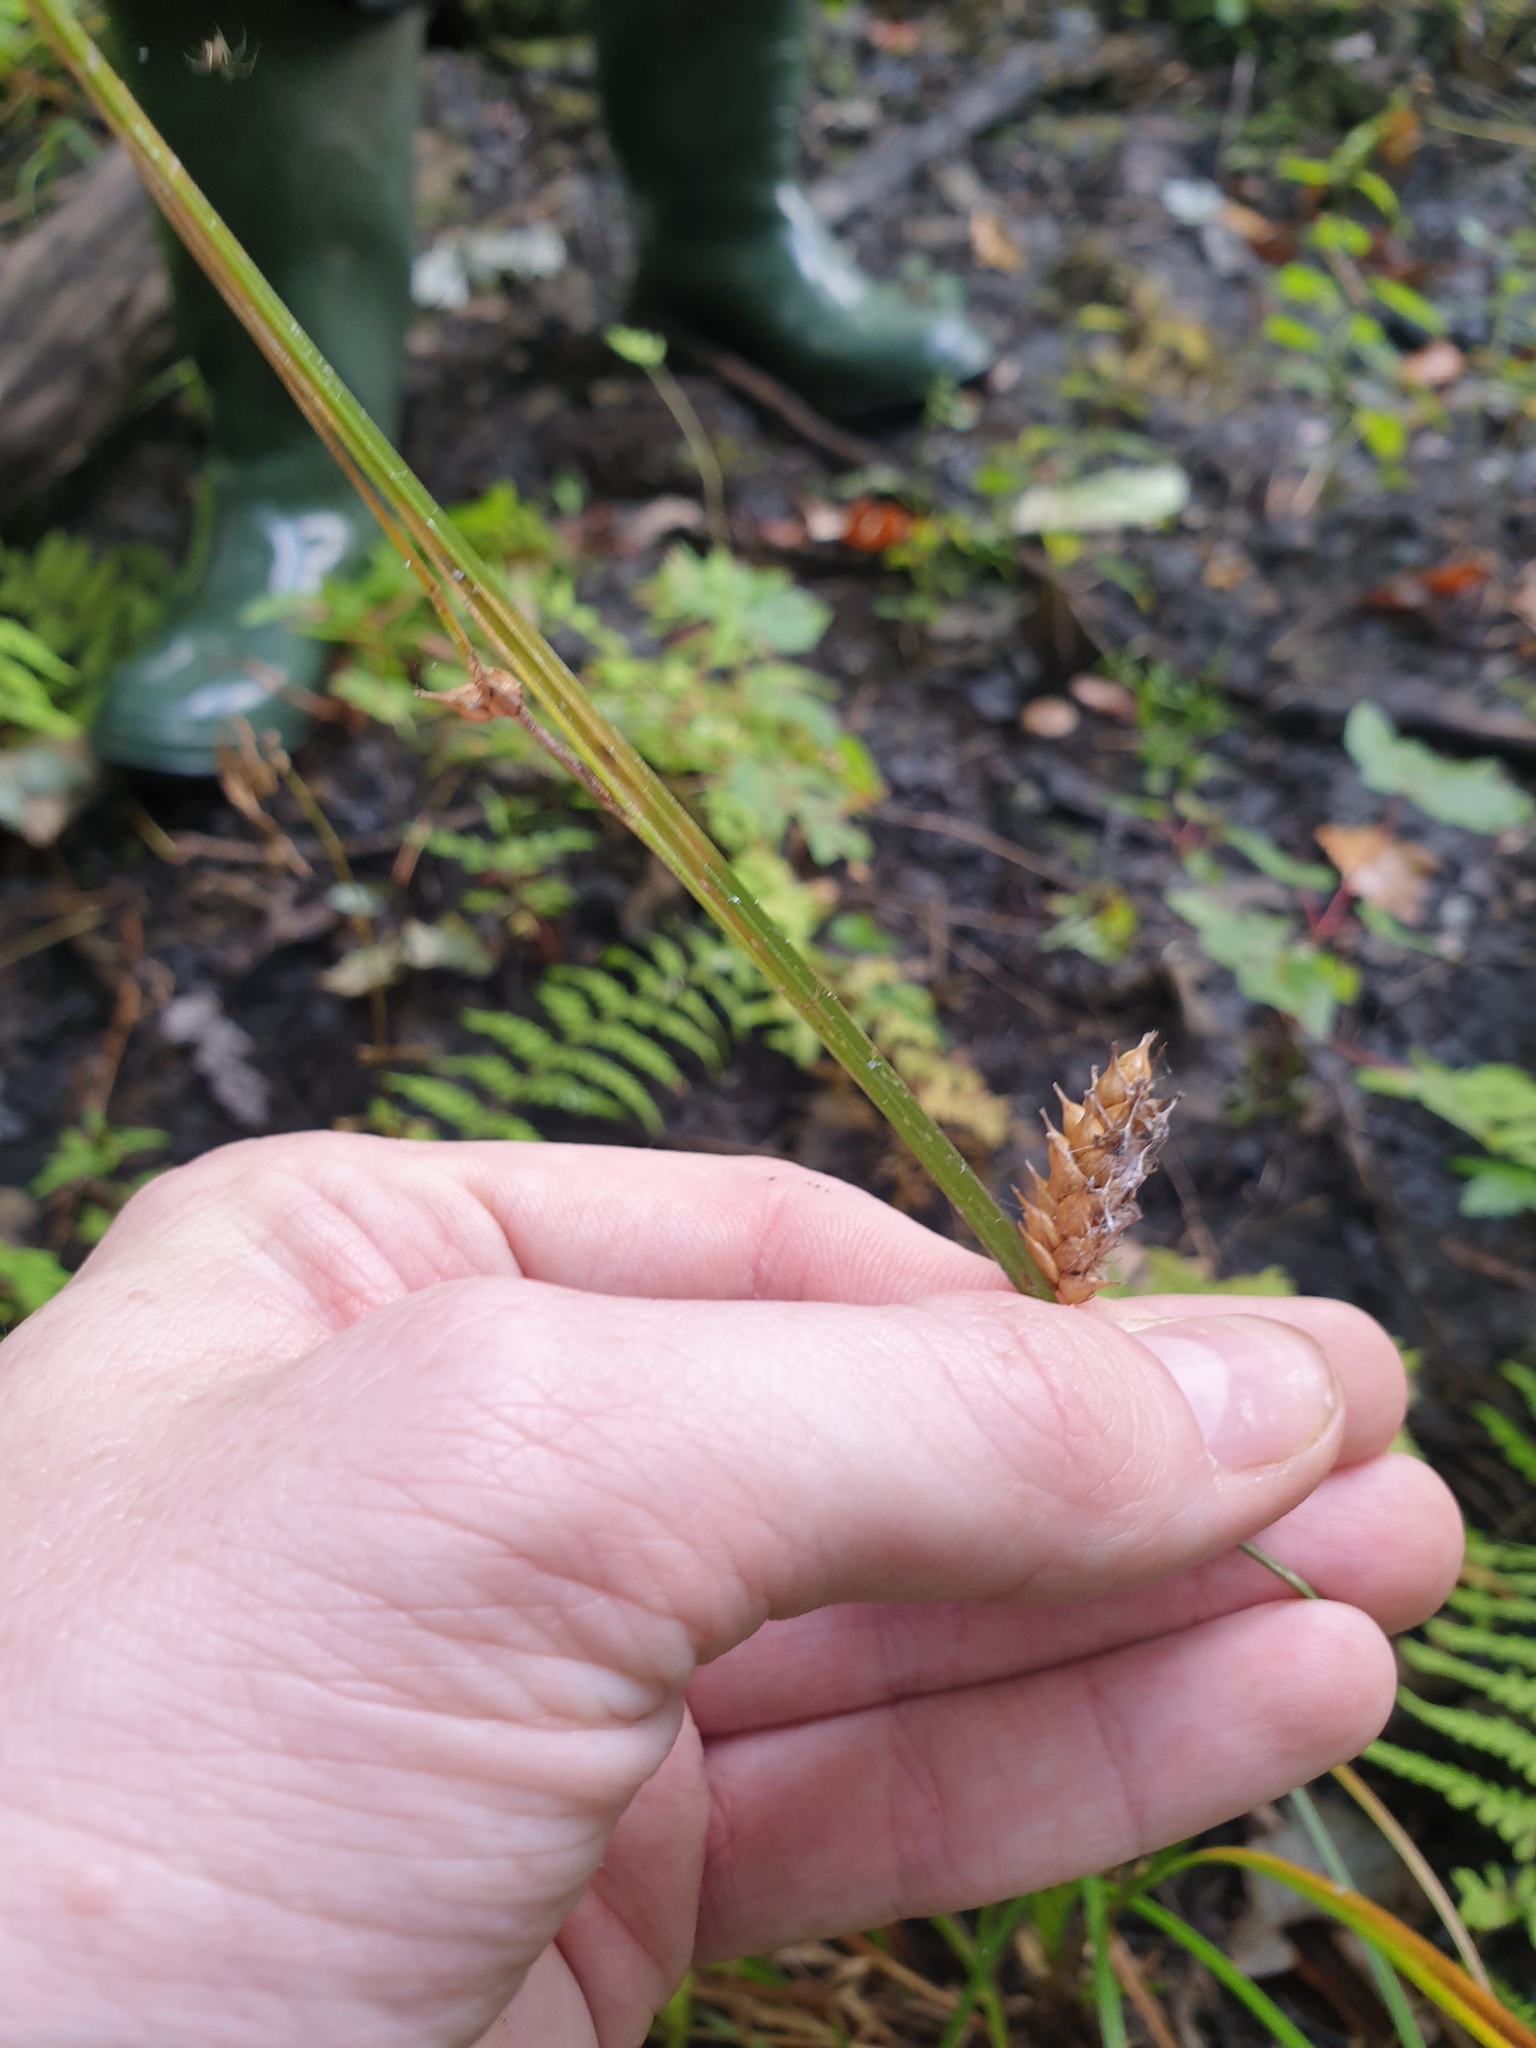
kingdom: Plantae
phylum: Tracheophyta
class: Liliopsida
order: Poales
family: Cyperaceae
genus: Carex
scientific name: Carex vesicaria
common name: Bladder-sedge
